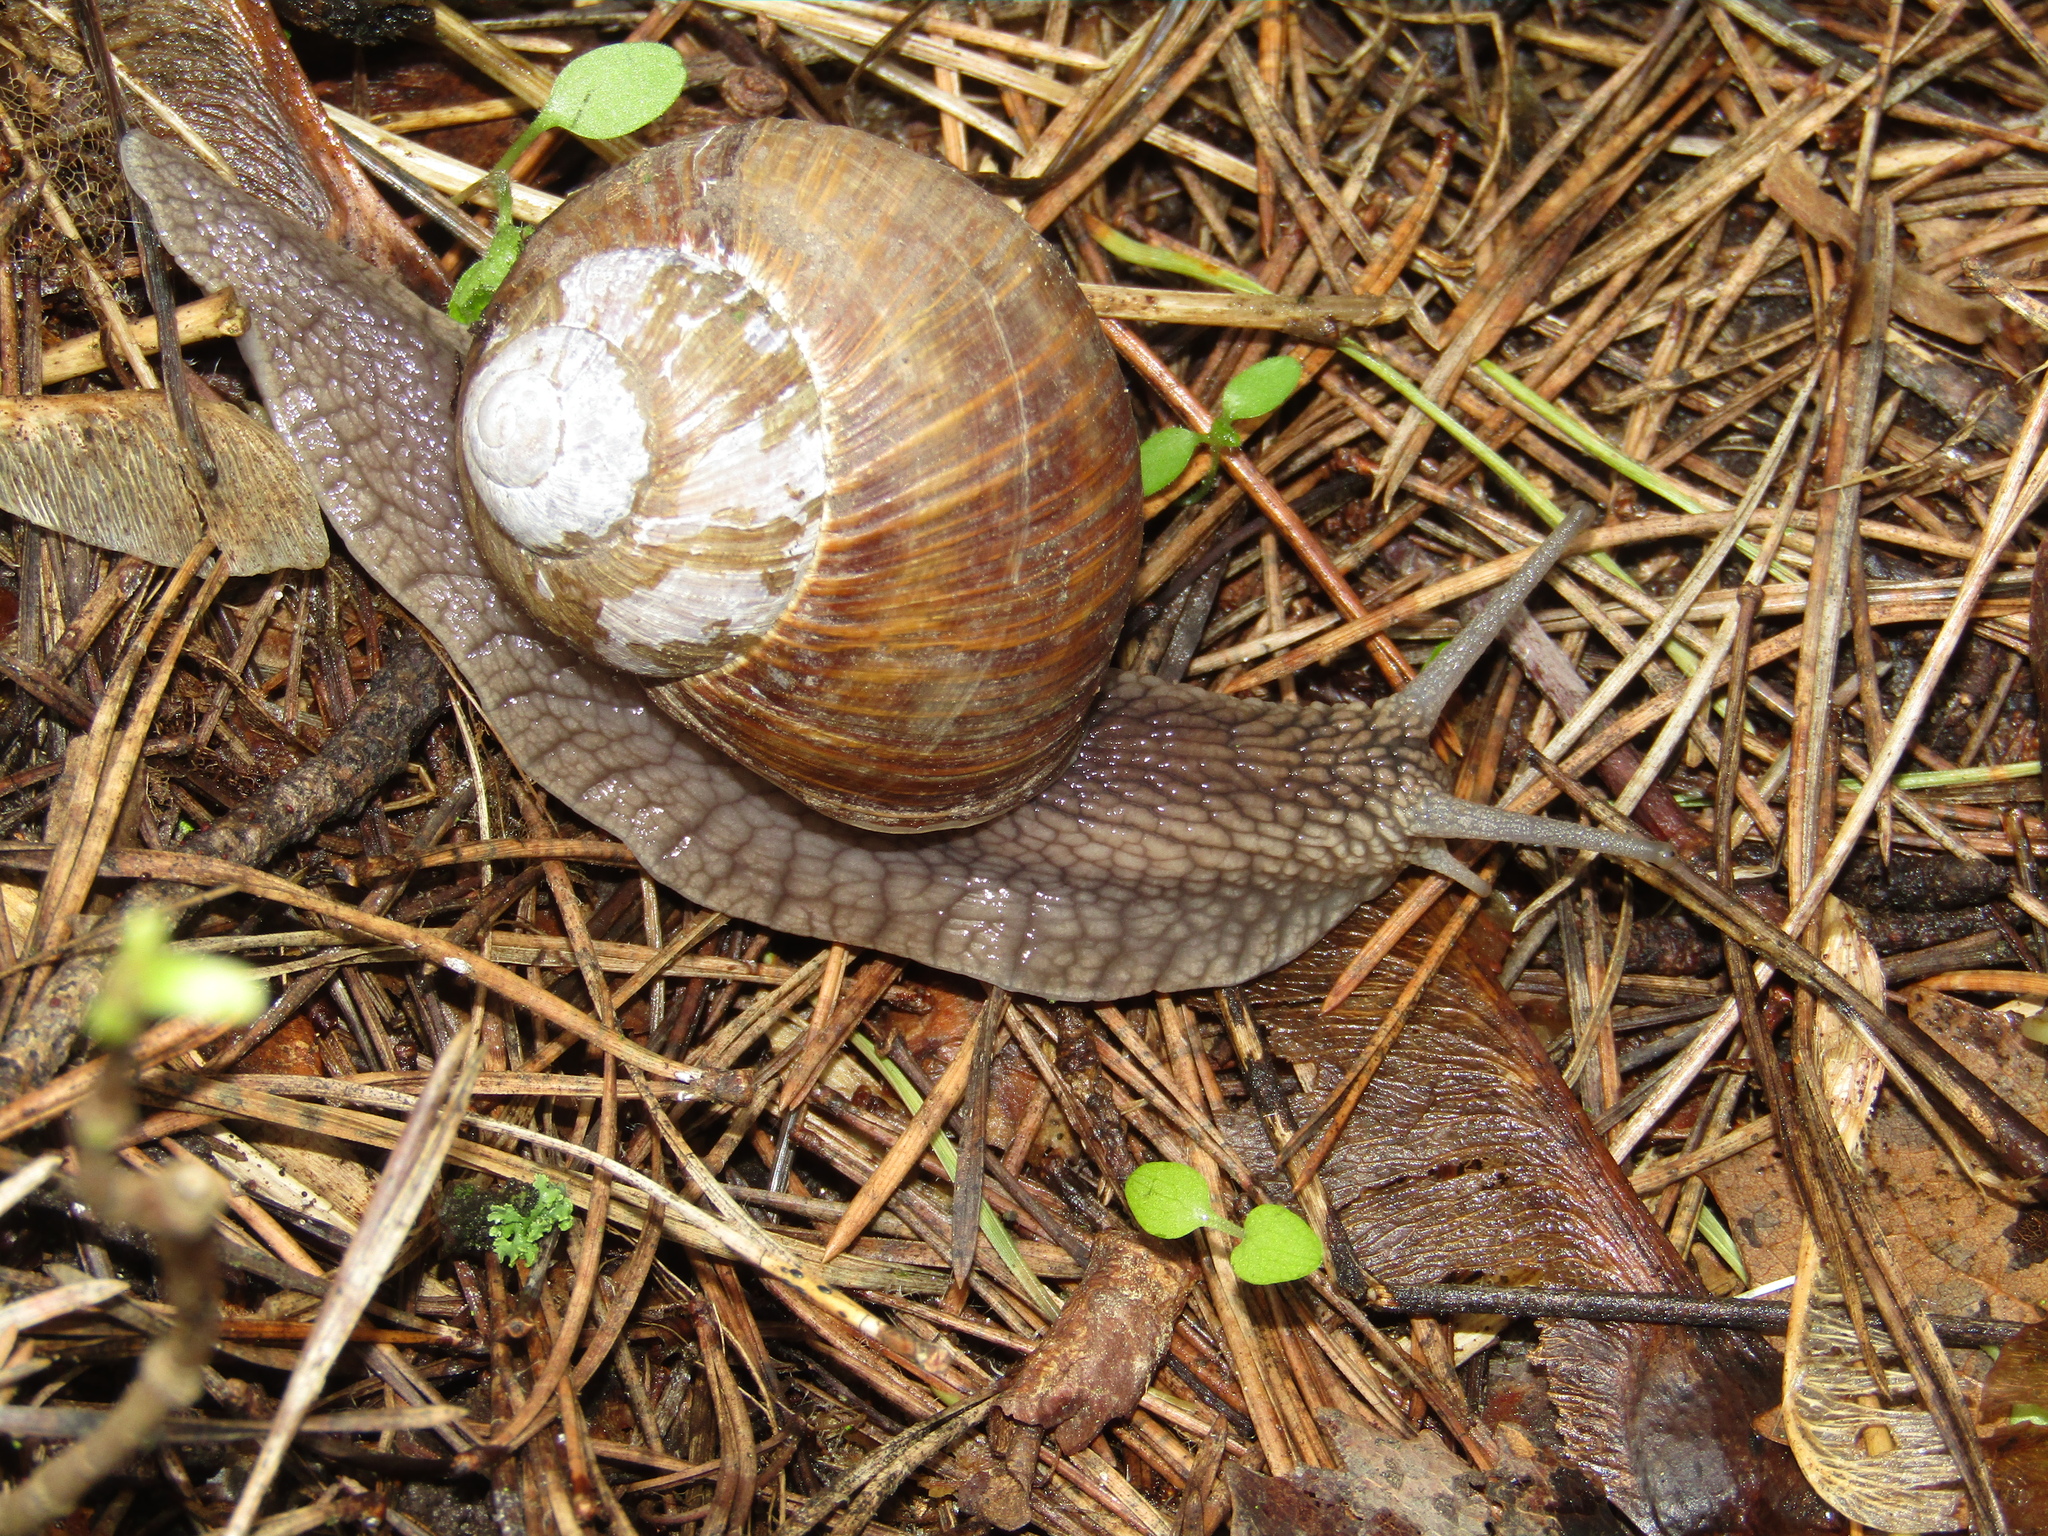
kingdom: Animalia
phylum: Mollusca
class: Gastropoda
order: Stylommatophora
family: Helicidae
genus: Helix
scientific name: Helix pomatia
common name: Roman snail
